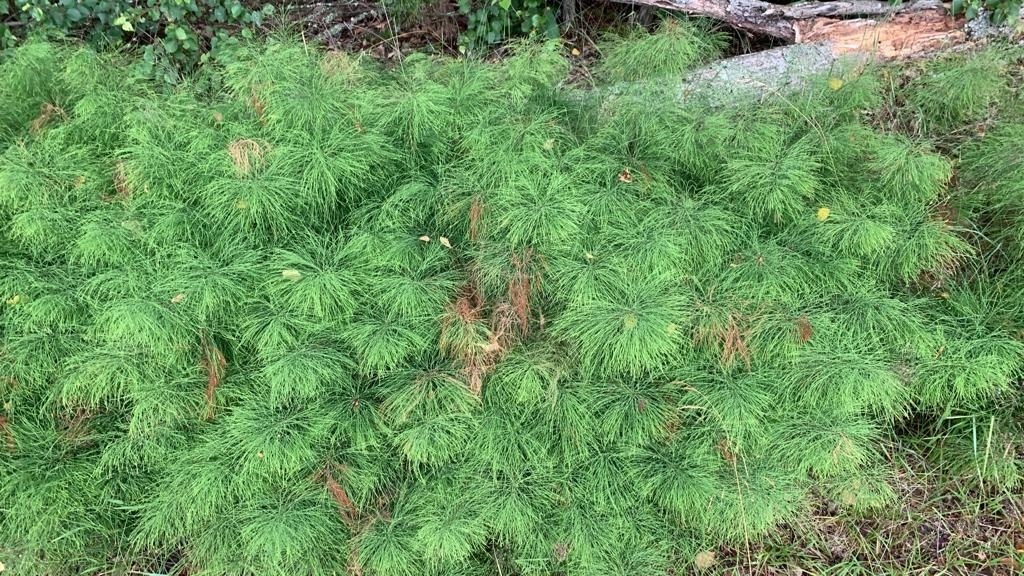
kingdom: Plantae
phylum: Tracheophyta
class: Polypodiopsida
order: Equisetales
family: Equisetaceae
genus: Equisetum
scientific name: Equisetum sylvaticum
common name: Wood horsetail
